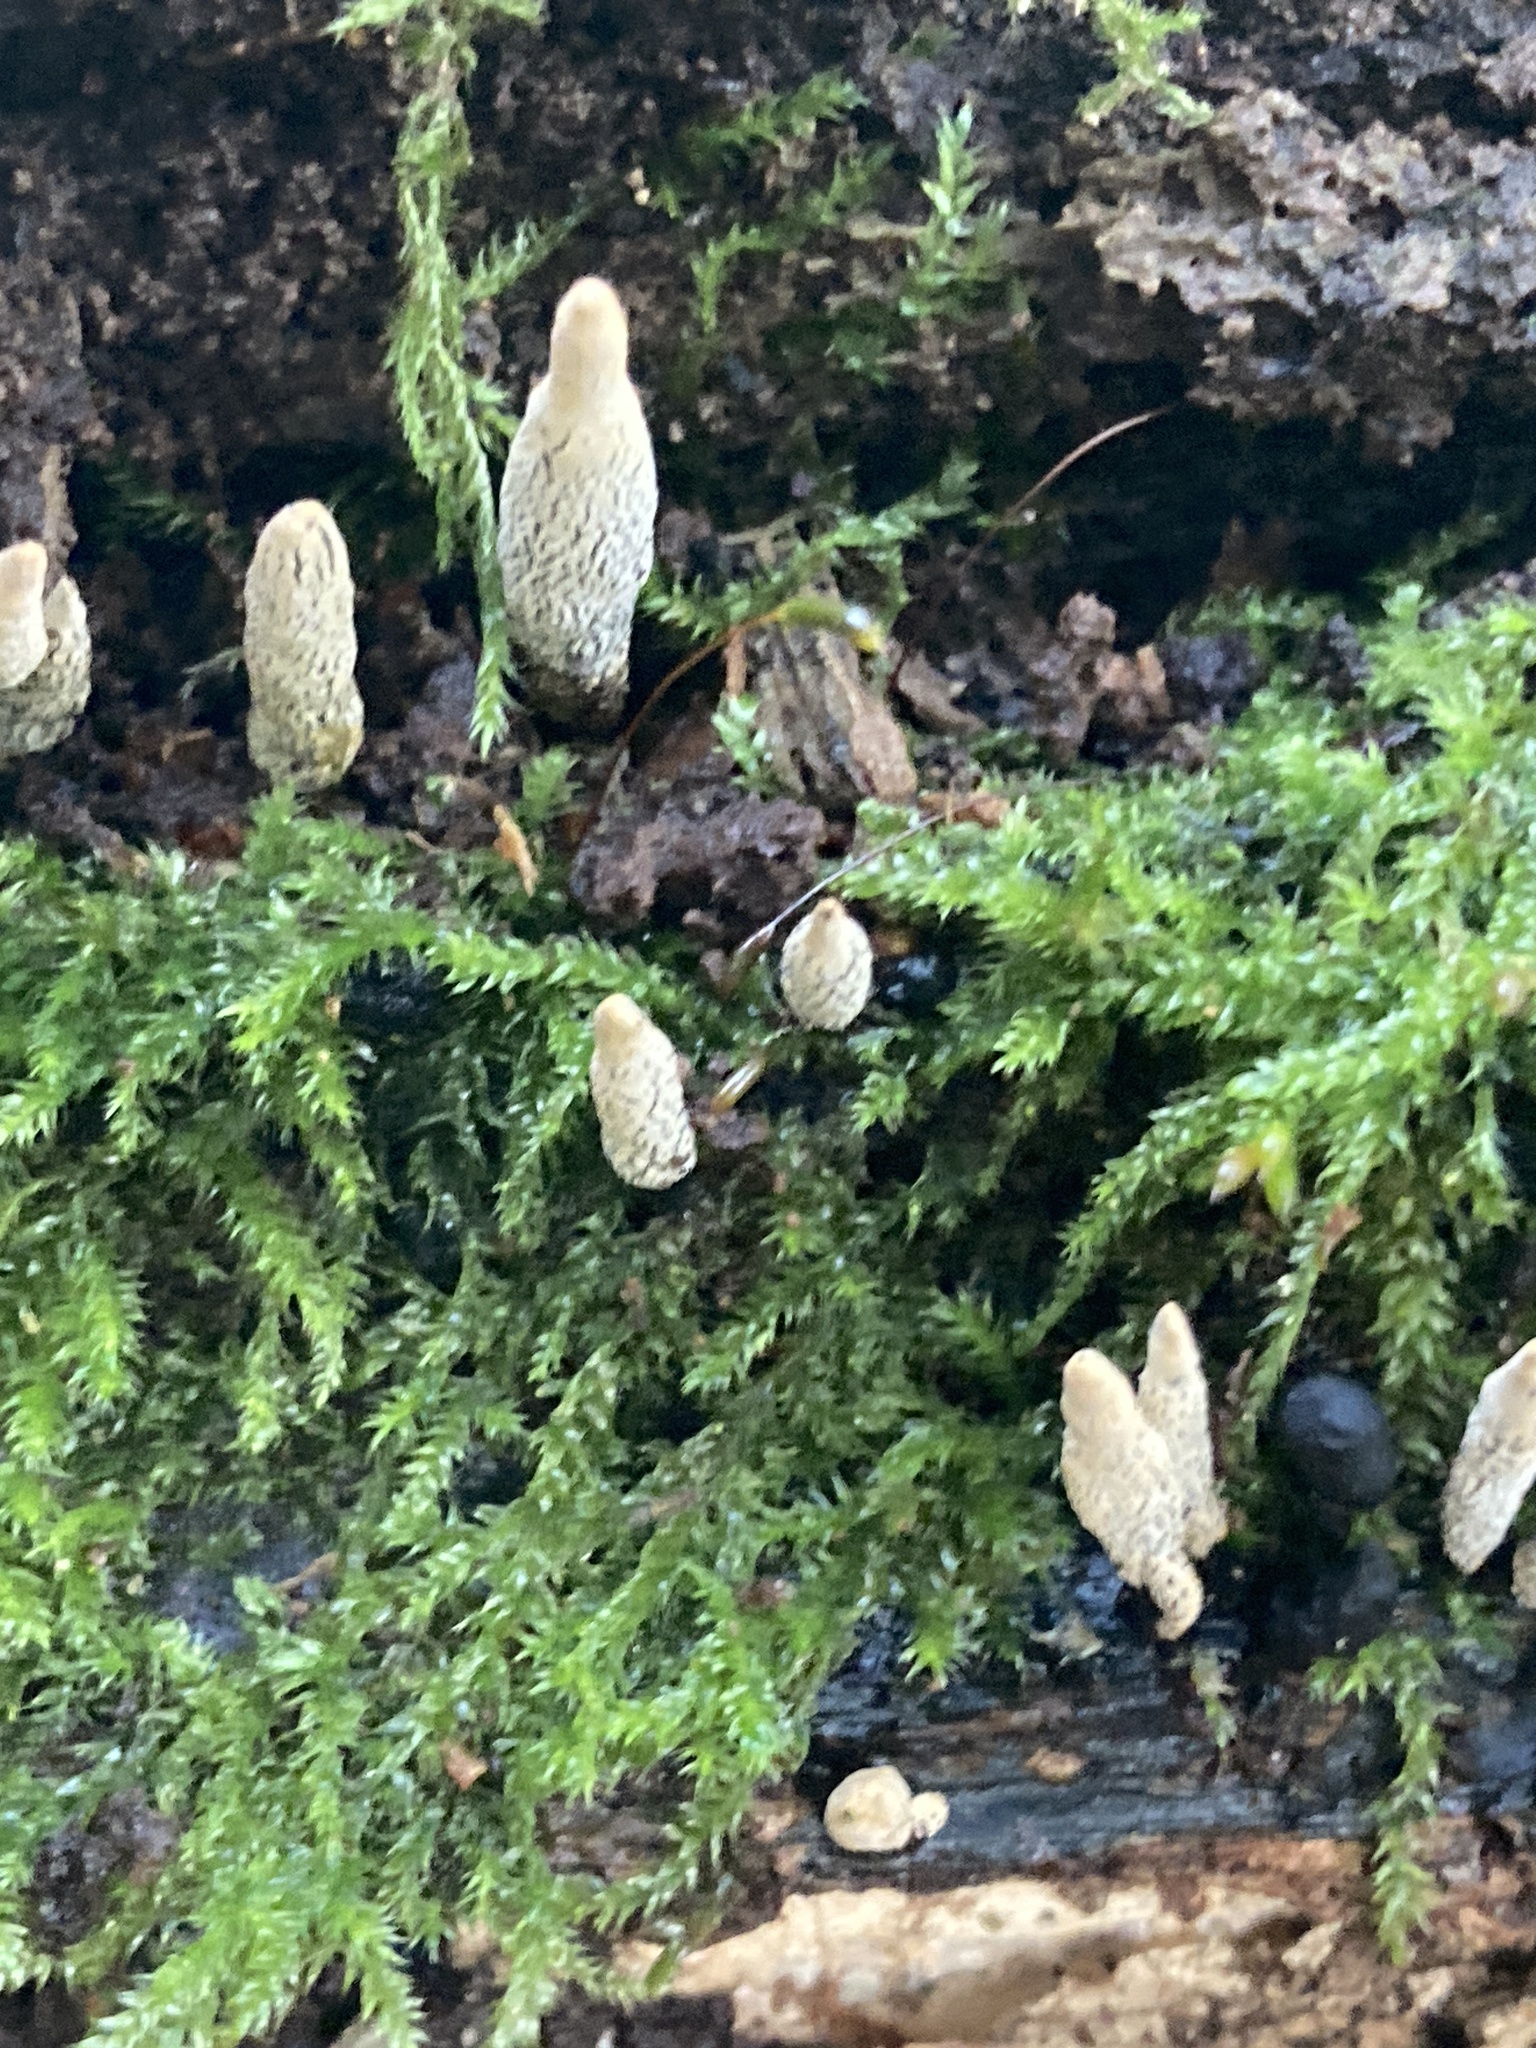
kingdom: Fungi
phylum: Ascomycota
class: Sordariomycetes
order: Xylariales
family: Xylariaceae
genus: Xylaria
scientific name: Xylaria polymorpha
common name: Dead man's fingers
